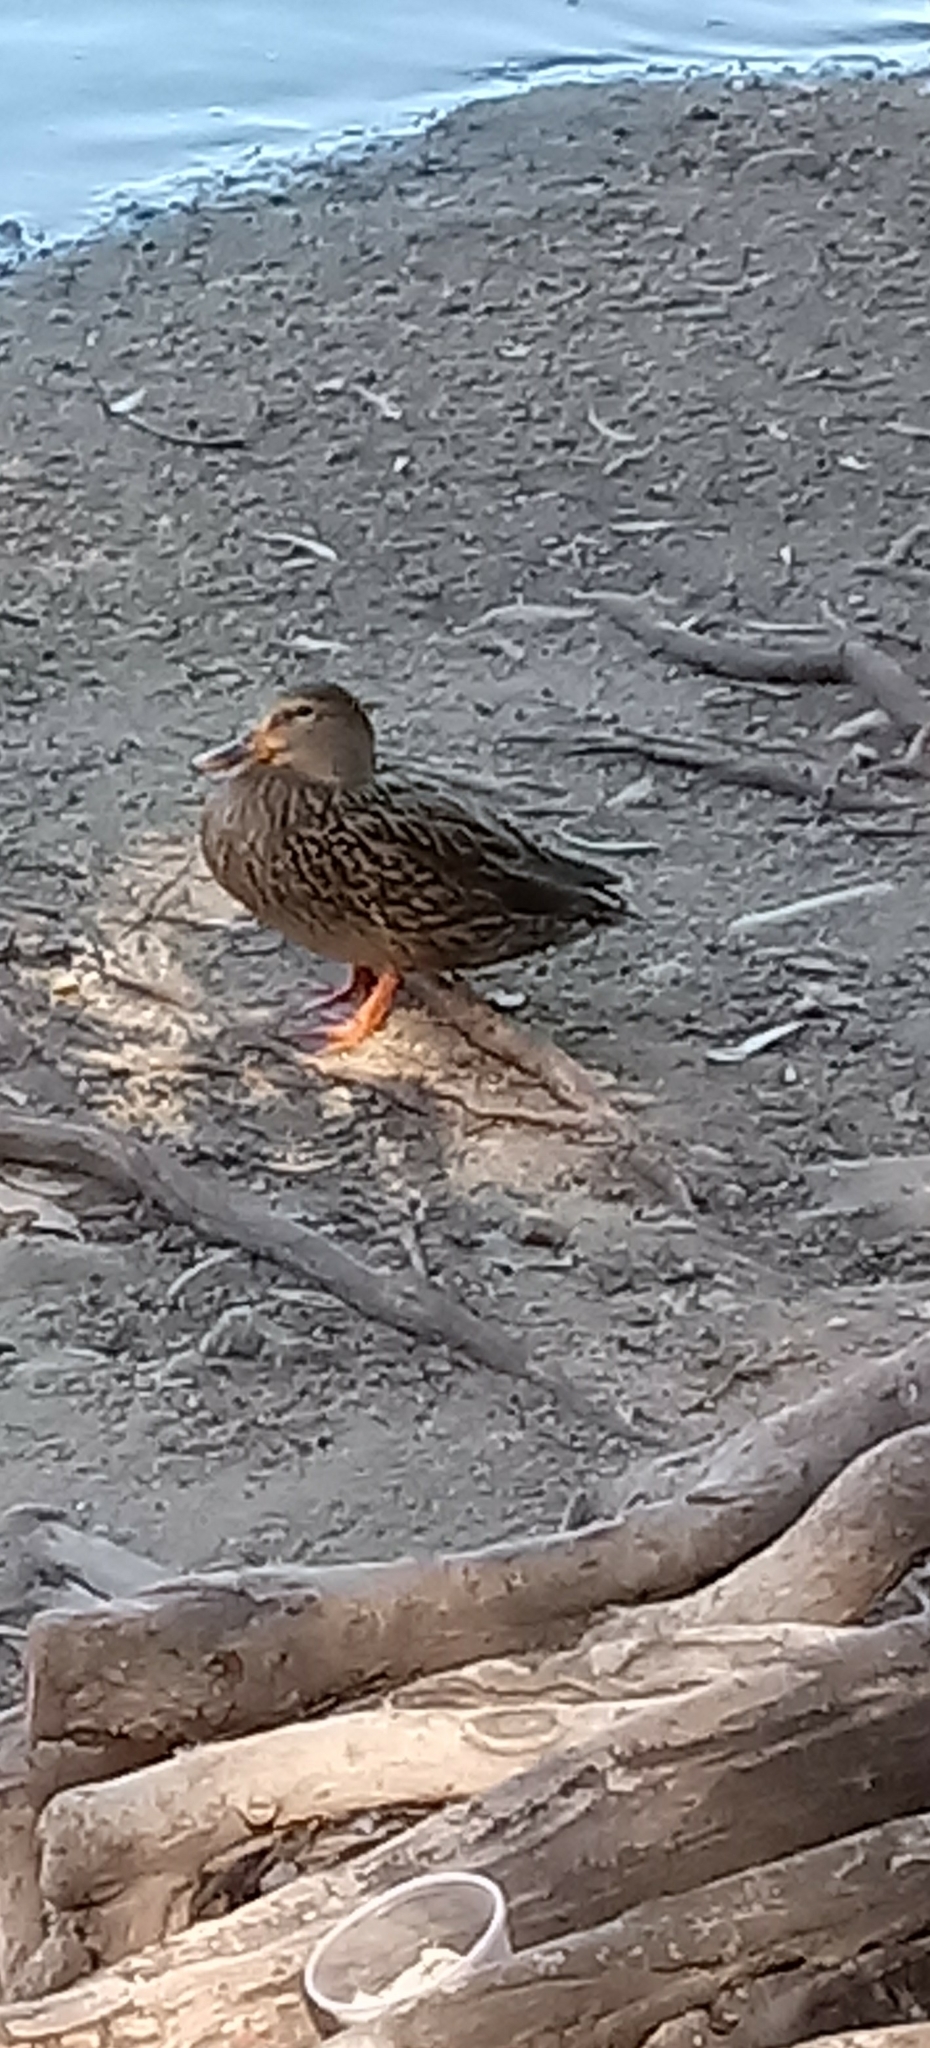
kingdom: Animalia
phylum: Chordata
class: Aves
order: Anseriformes
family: Anatidae
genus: Anas
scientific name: Anas platyrhynchos
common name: Mallard
